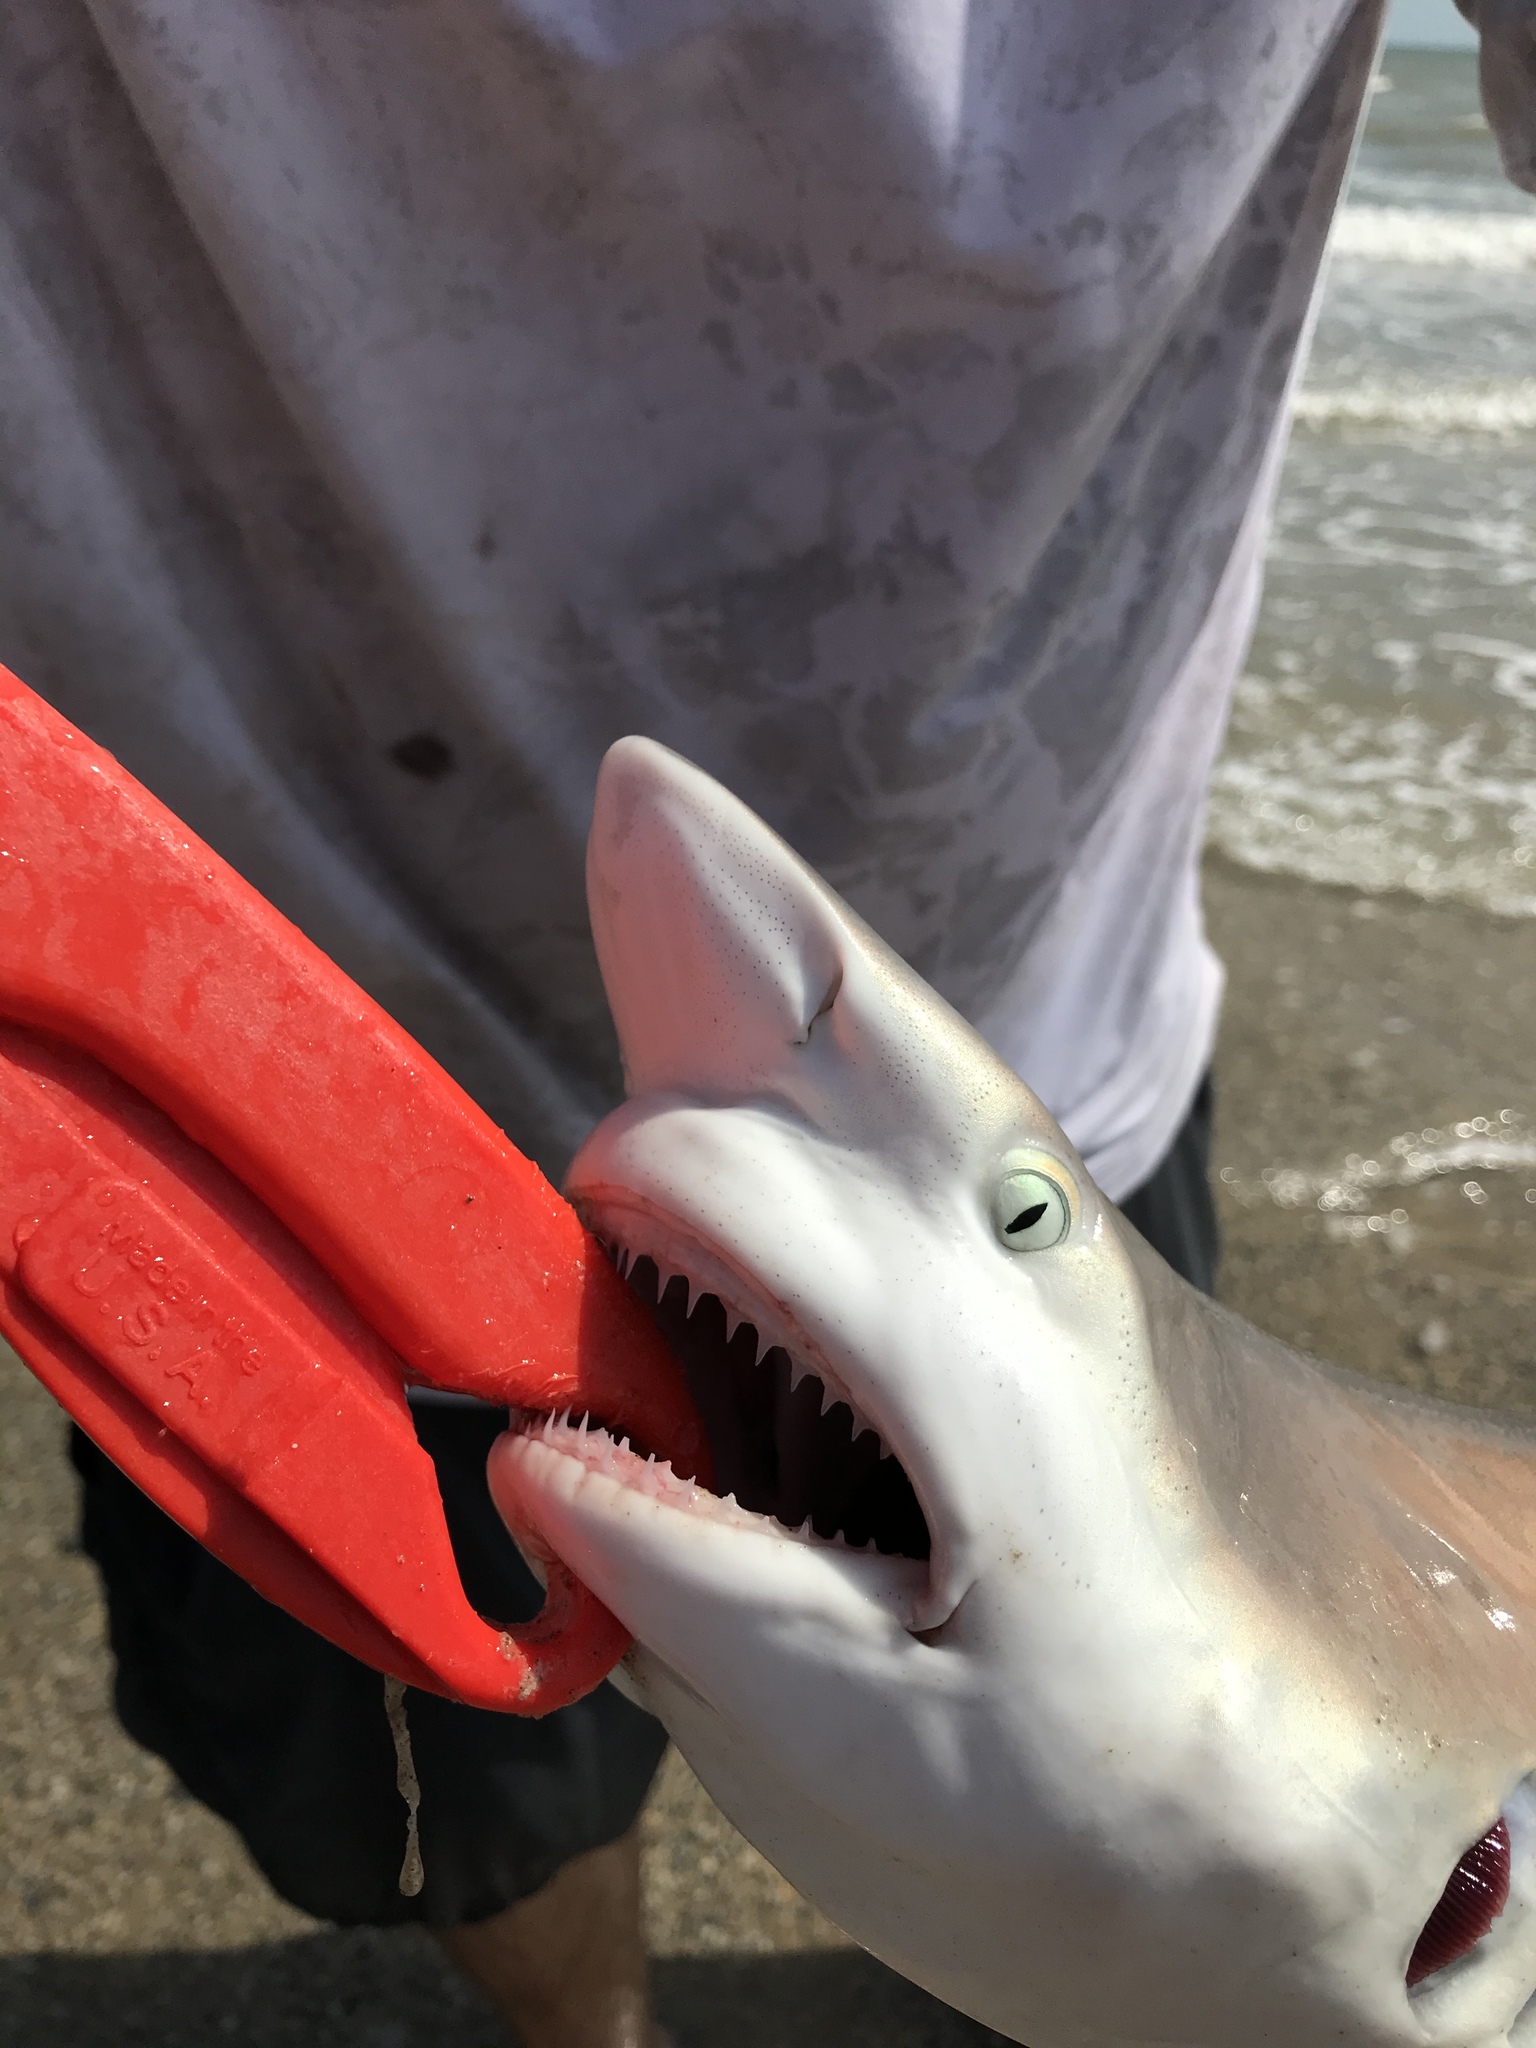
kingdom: Animalia
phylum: Chordata
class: Elasmobranchii
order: Carcharhiniformes
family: Carcharhinidae
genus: Carcharhinus
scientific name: Carcharhinus limbatus
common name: Blacktip shark
